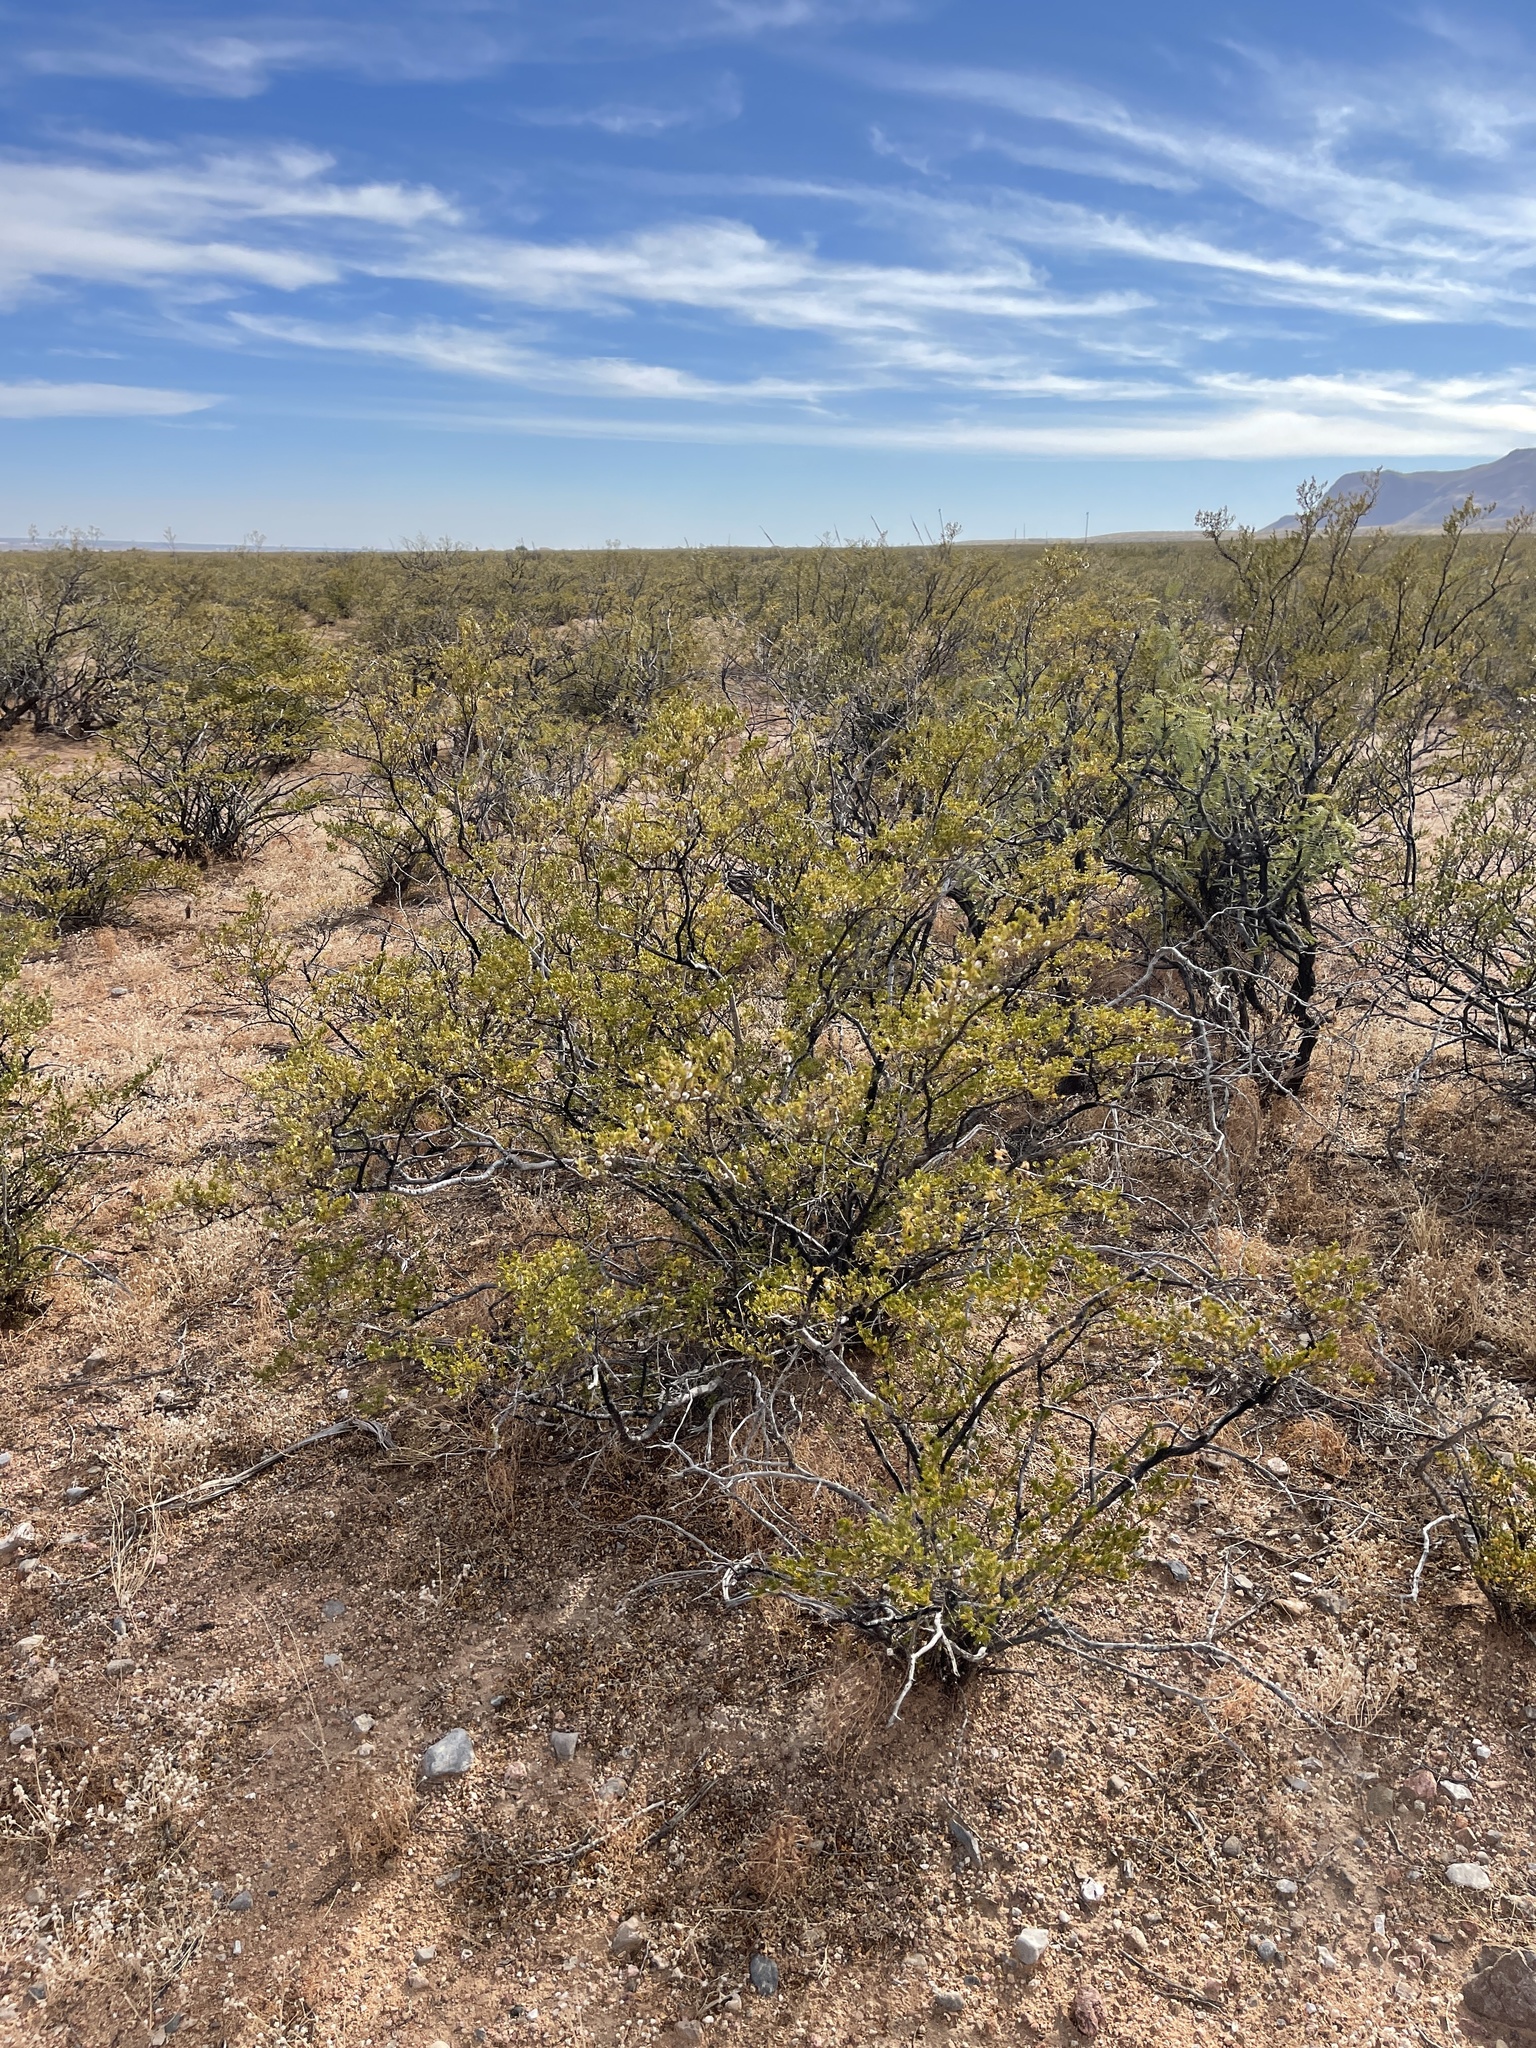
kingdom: Plantae
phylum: Tracheophyta
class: Magnoliopsida
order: Zygophyllales
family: Zygophyllaceae
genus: Larrea
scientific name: Larrea tridentata
